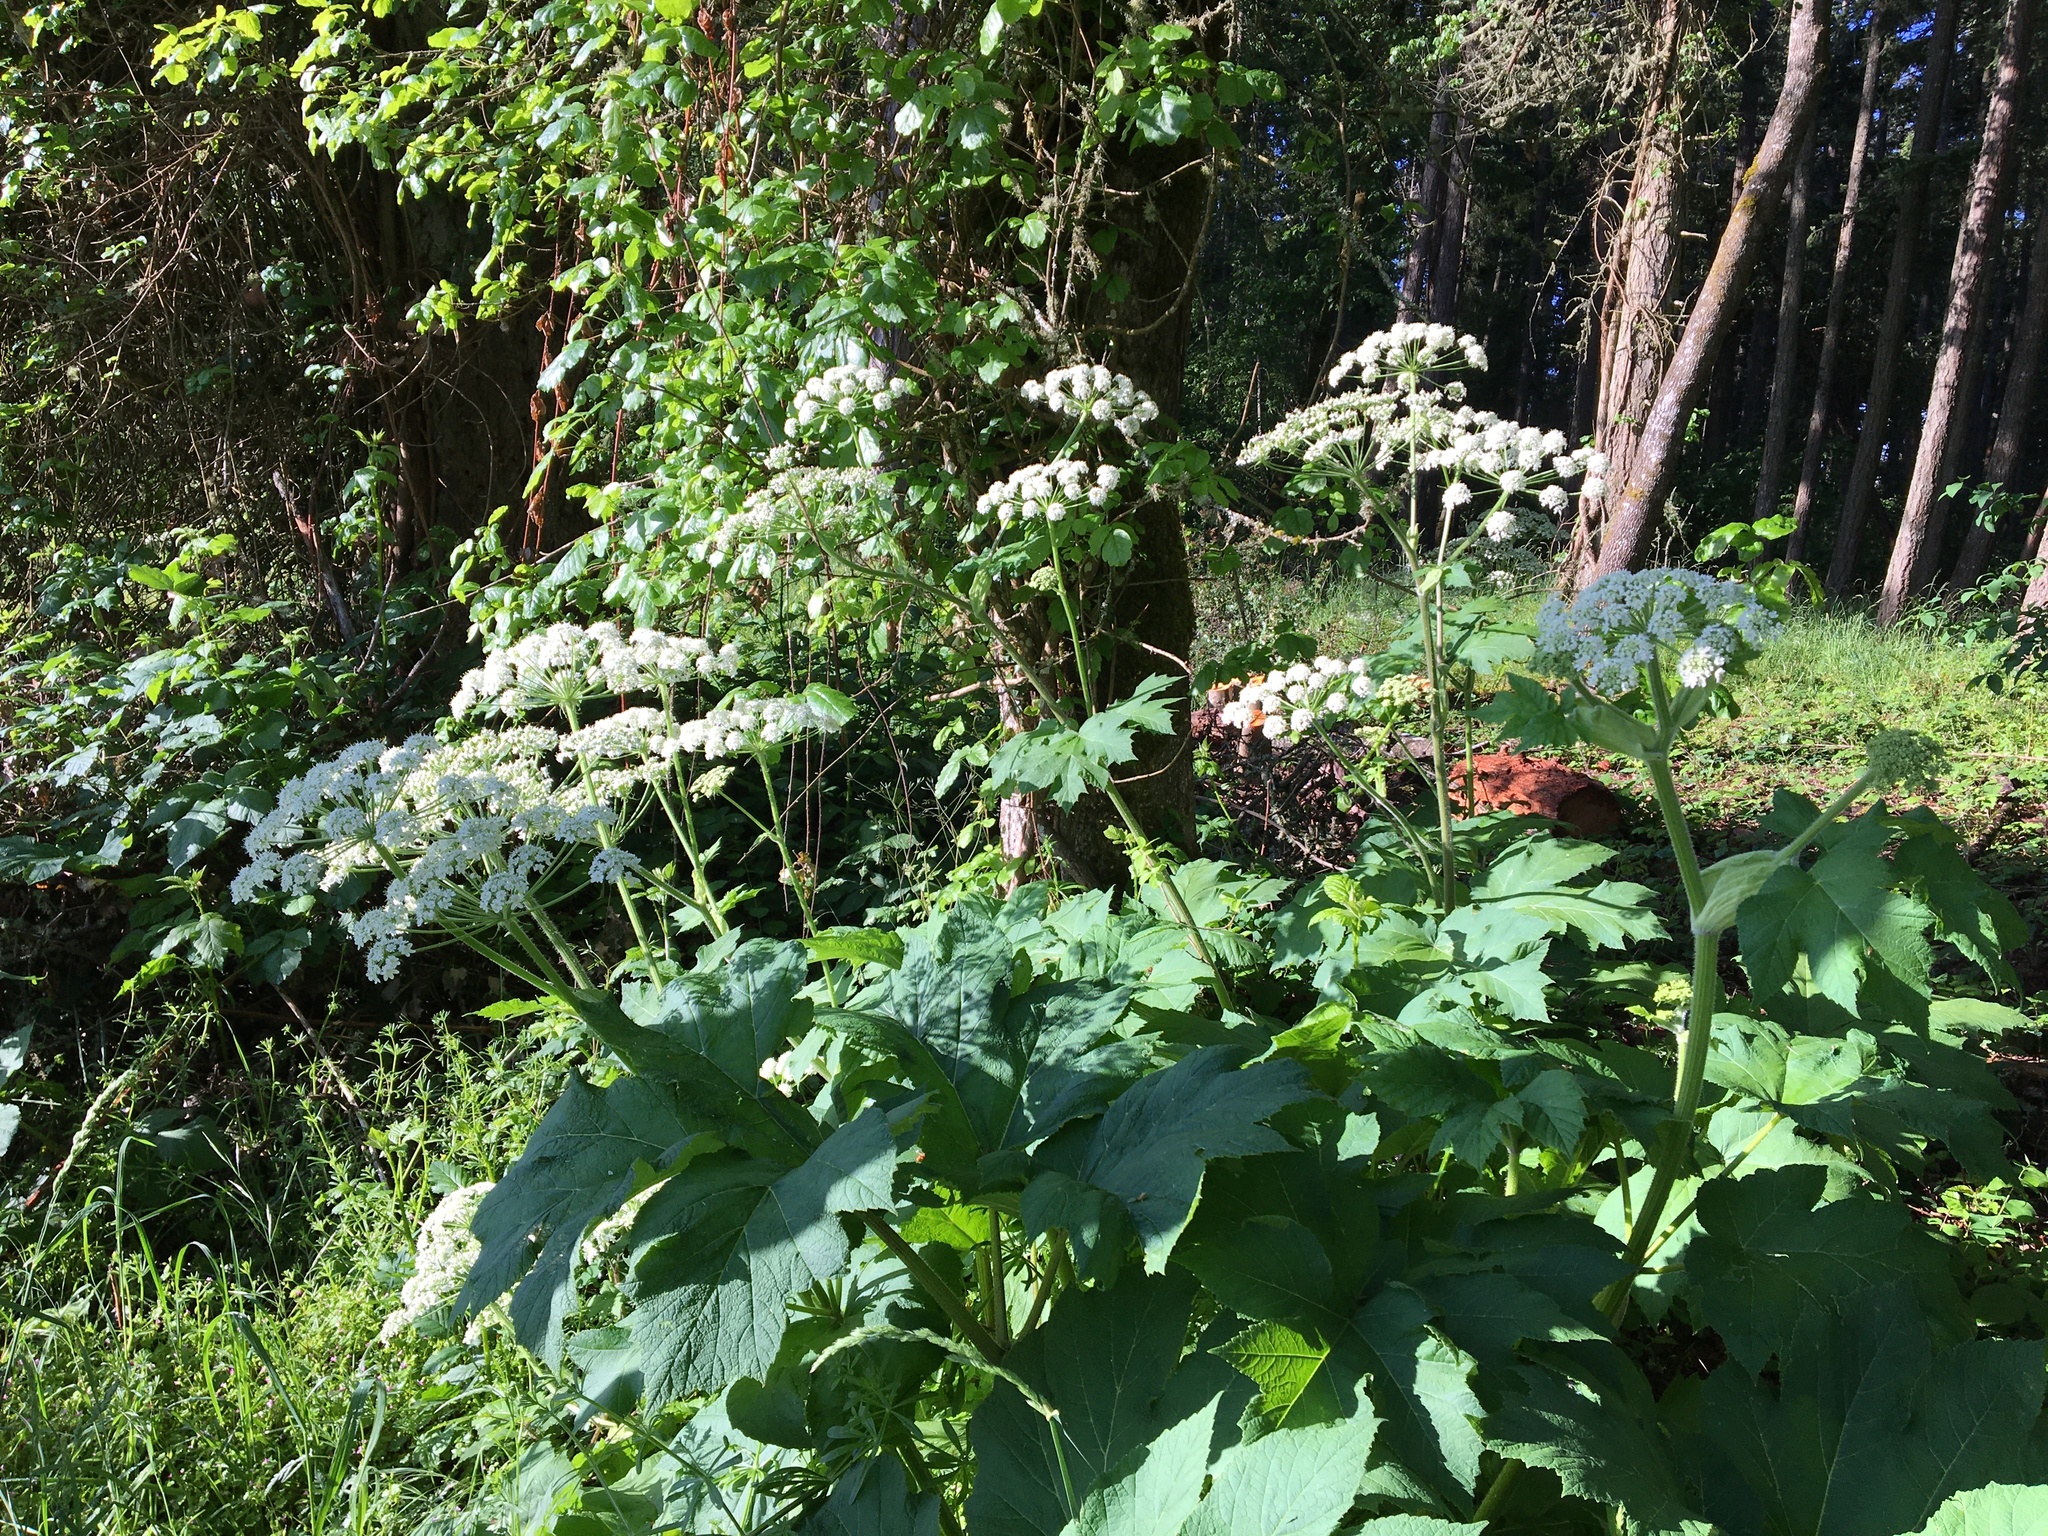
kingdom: Plantae
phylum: Tracheophyta
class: Magnoliopsida
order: Apiales
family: Apiaceae
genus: Heracleum
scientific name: Heracleum maximum
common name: American cow parsnip
